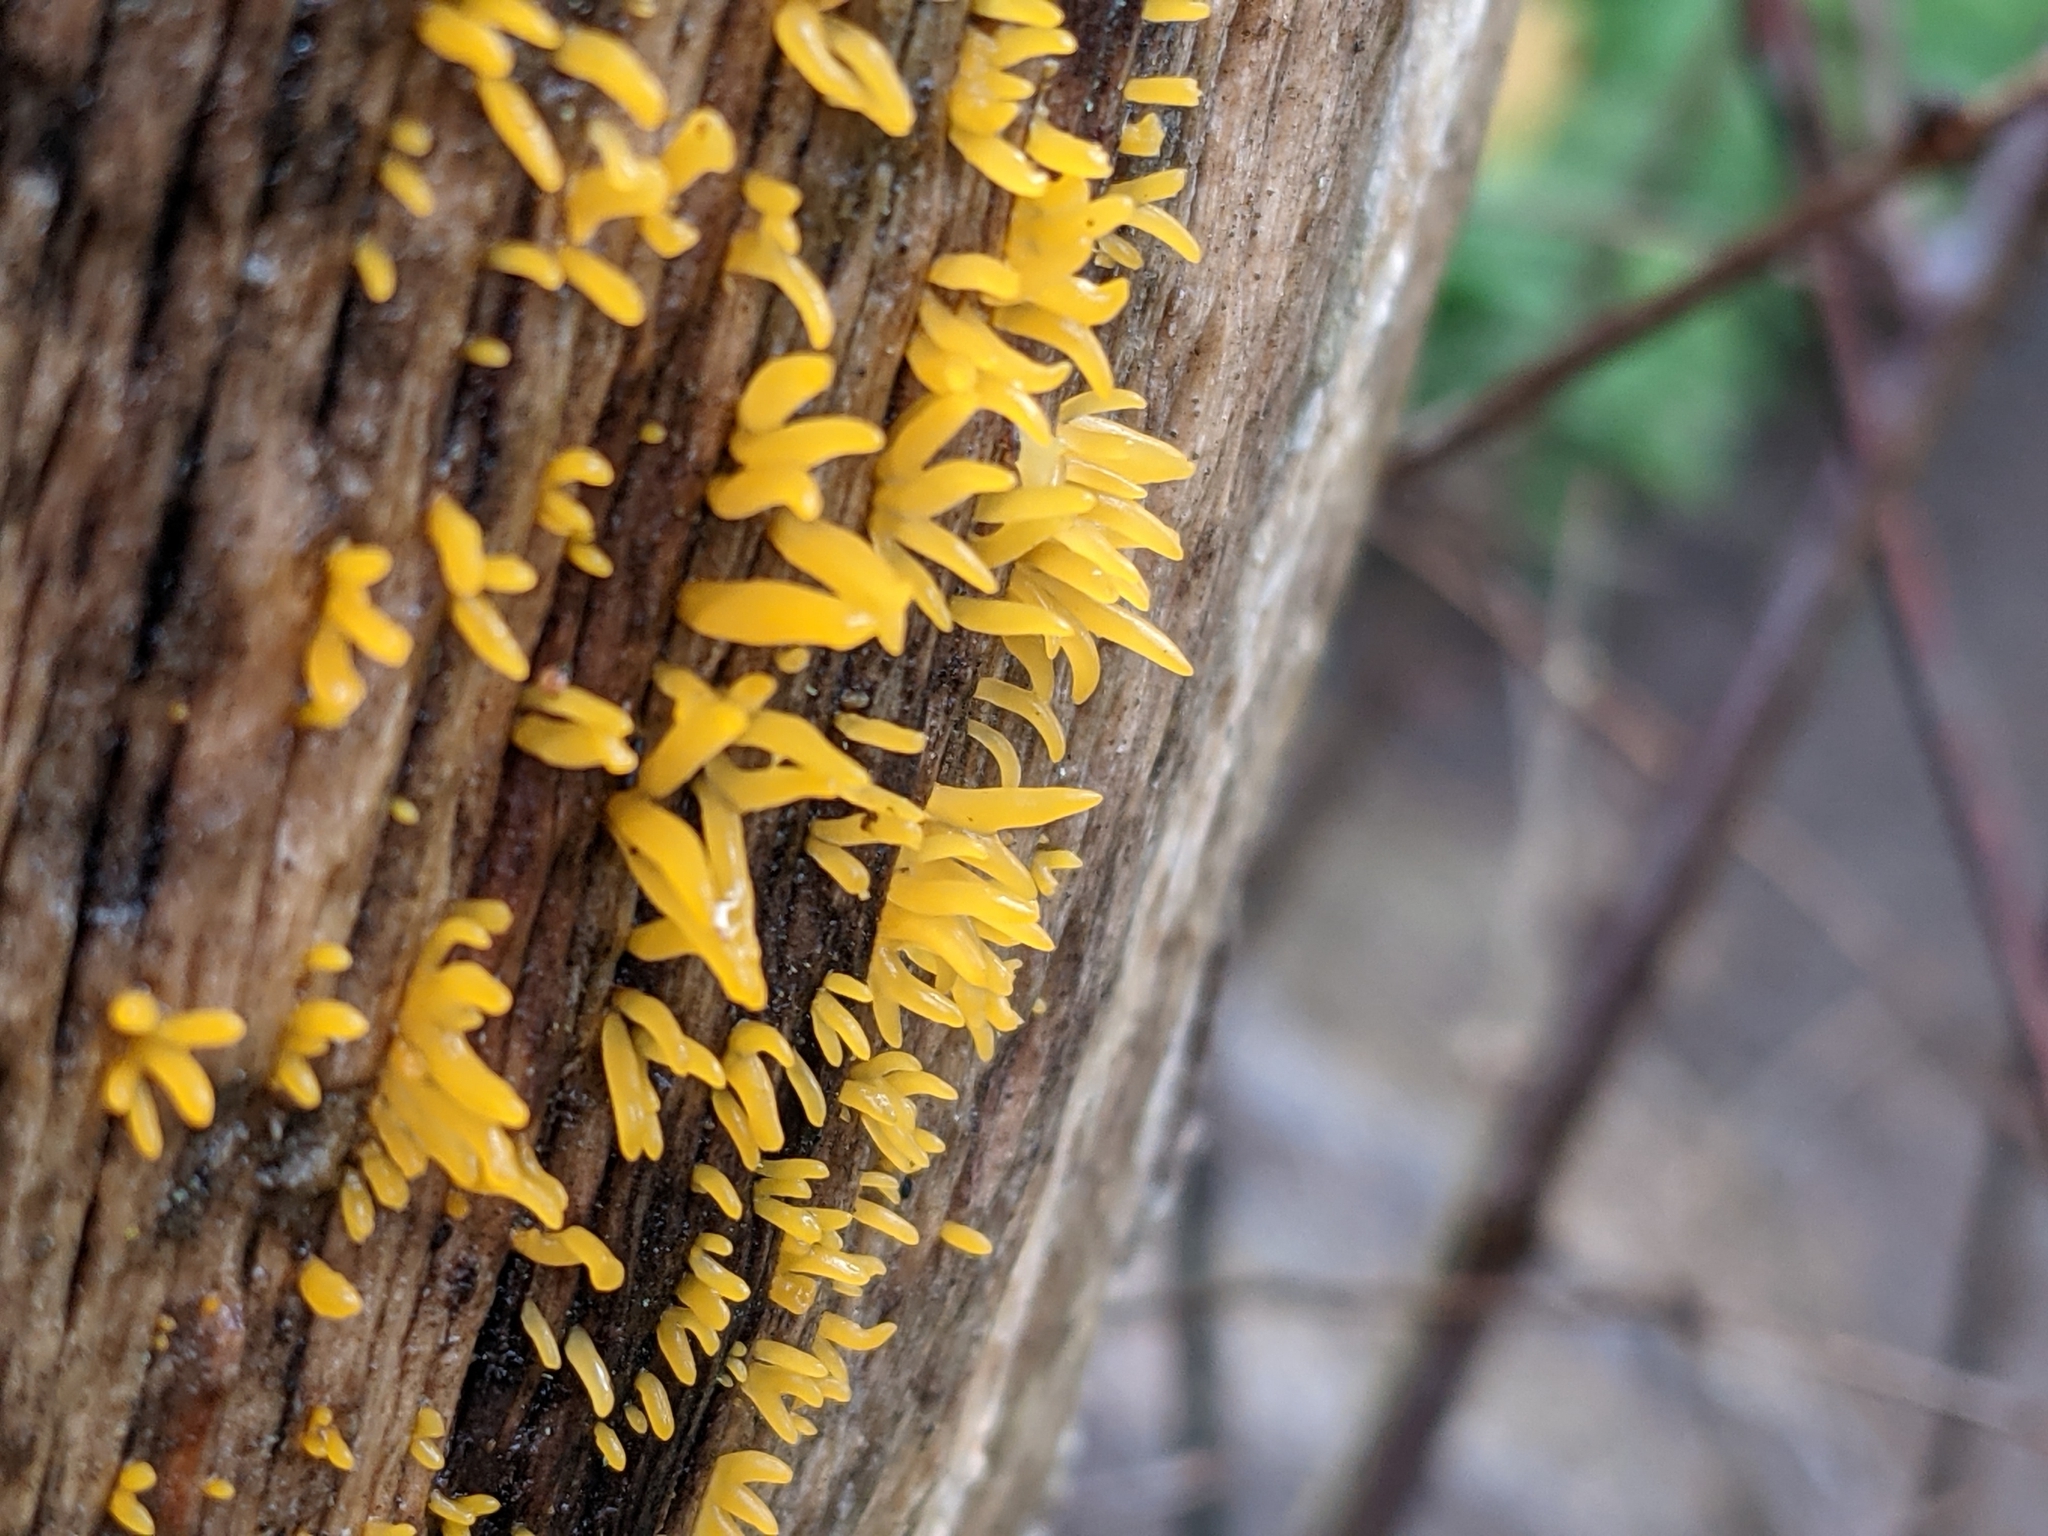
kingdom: Fungi
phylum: Basidiomycota
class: Dacrymycetes
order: Dacrymycetales
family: Dacrymycetaceae
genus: Calocera
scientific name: Calocera cornea
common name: Small stagshorn
